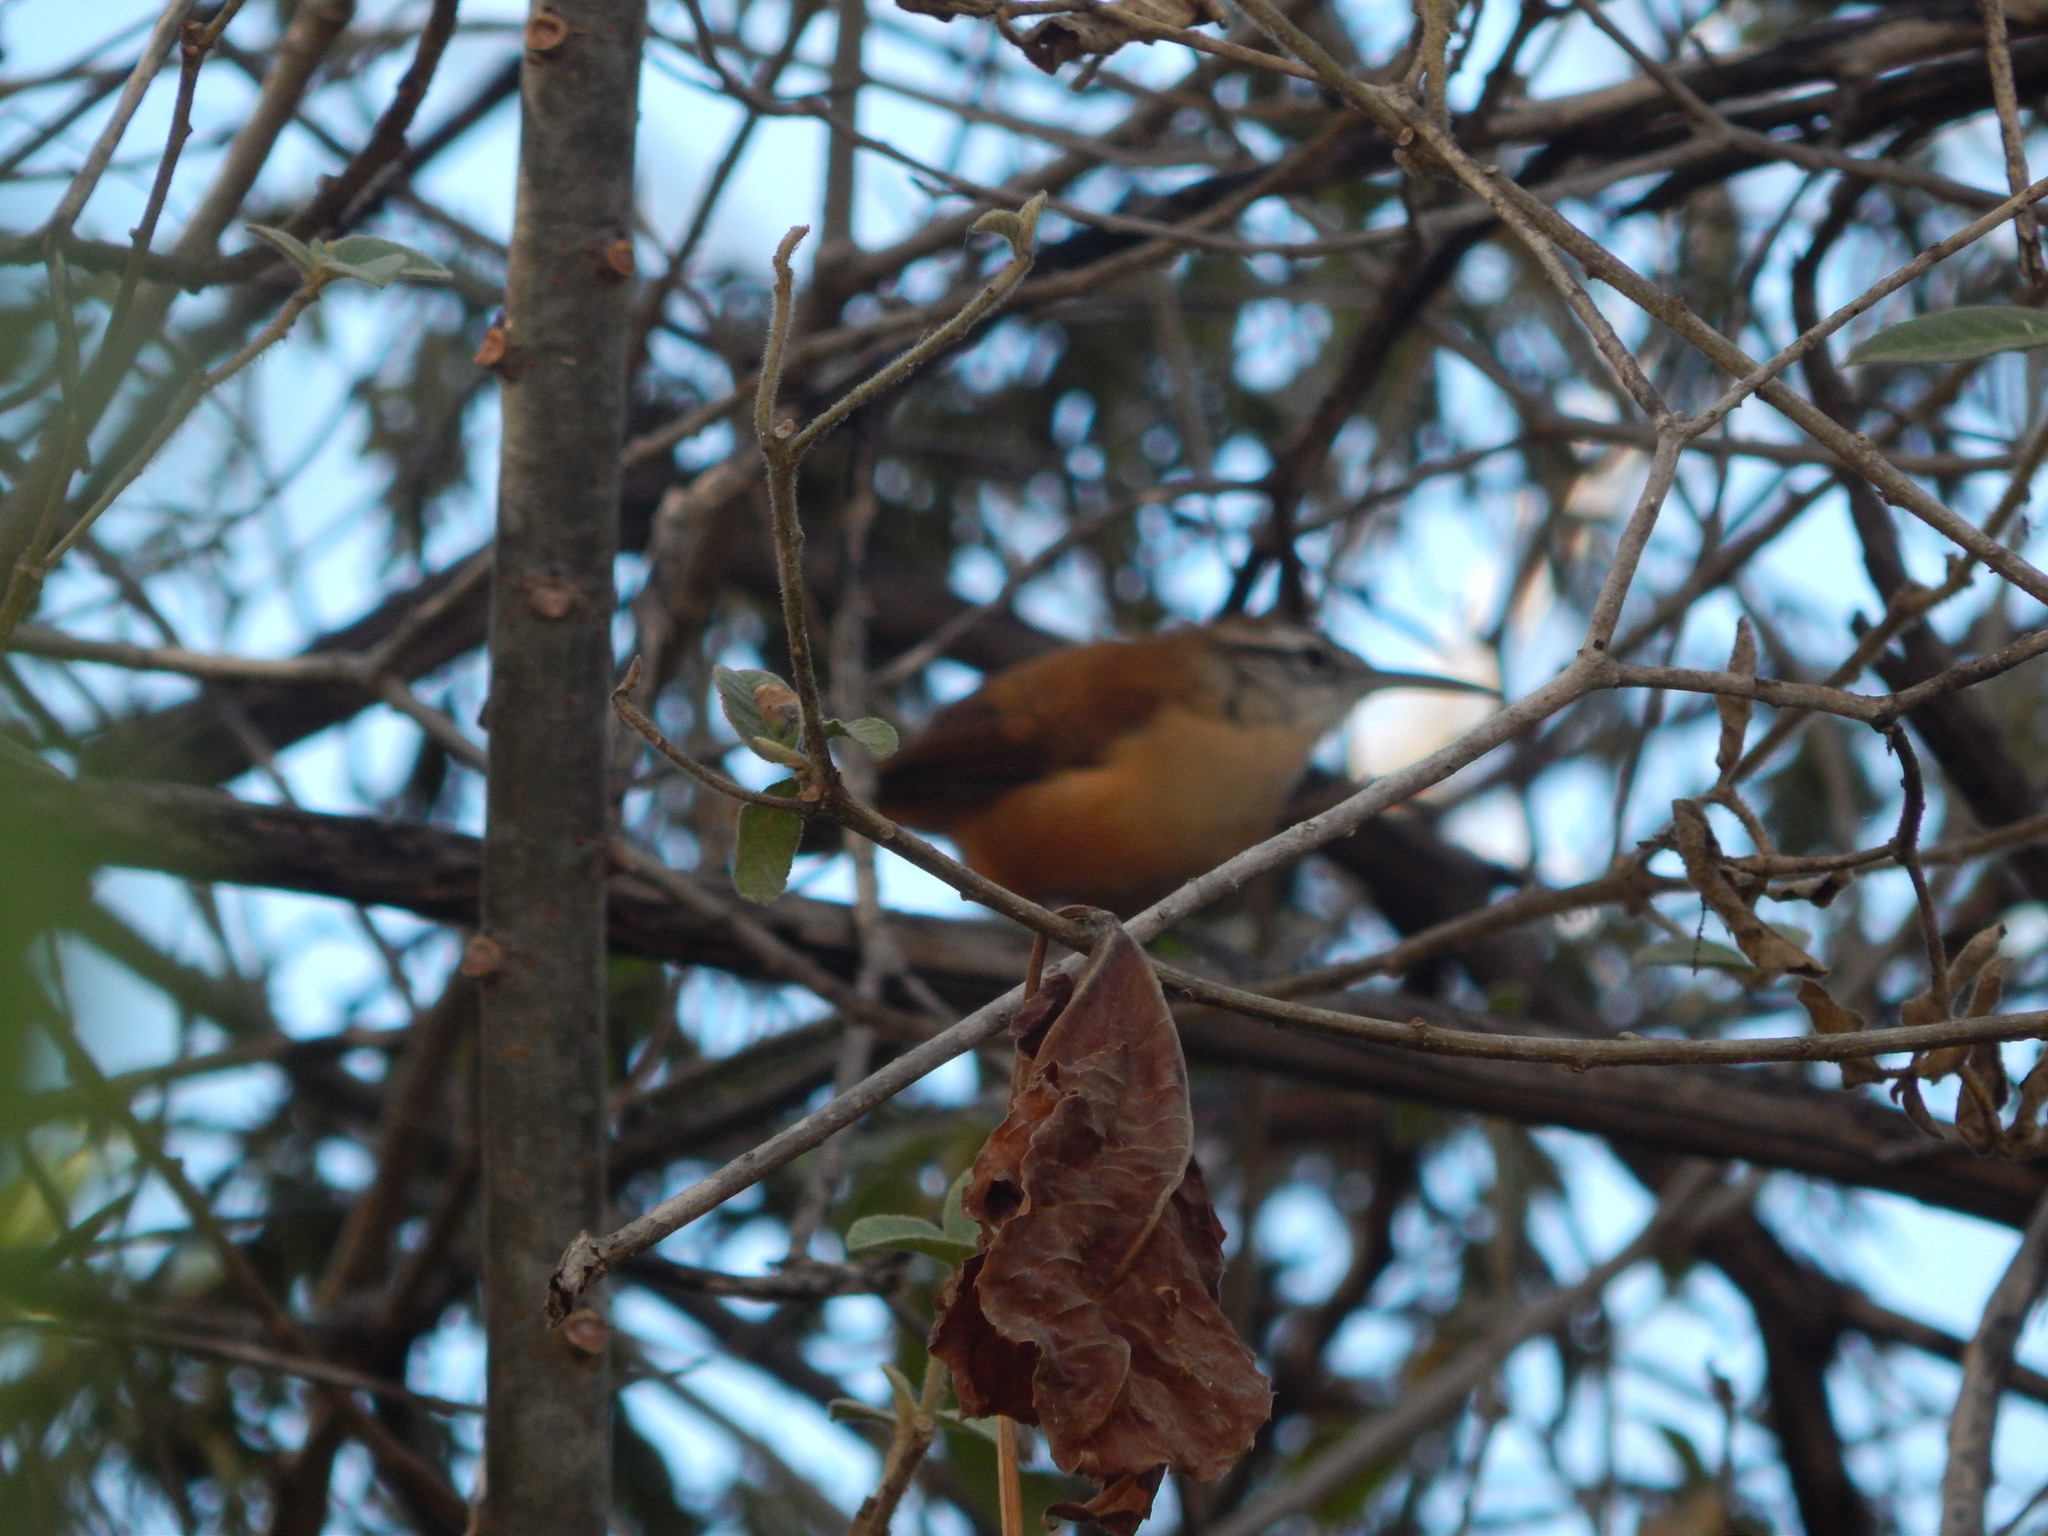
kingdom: Animalia
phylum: Chordata
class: Aves
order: Passeriformes
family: Troglodytidae
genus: Cantorchilus
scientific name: Cantorchilus longirostris
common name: Long-billed wren
